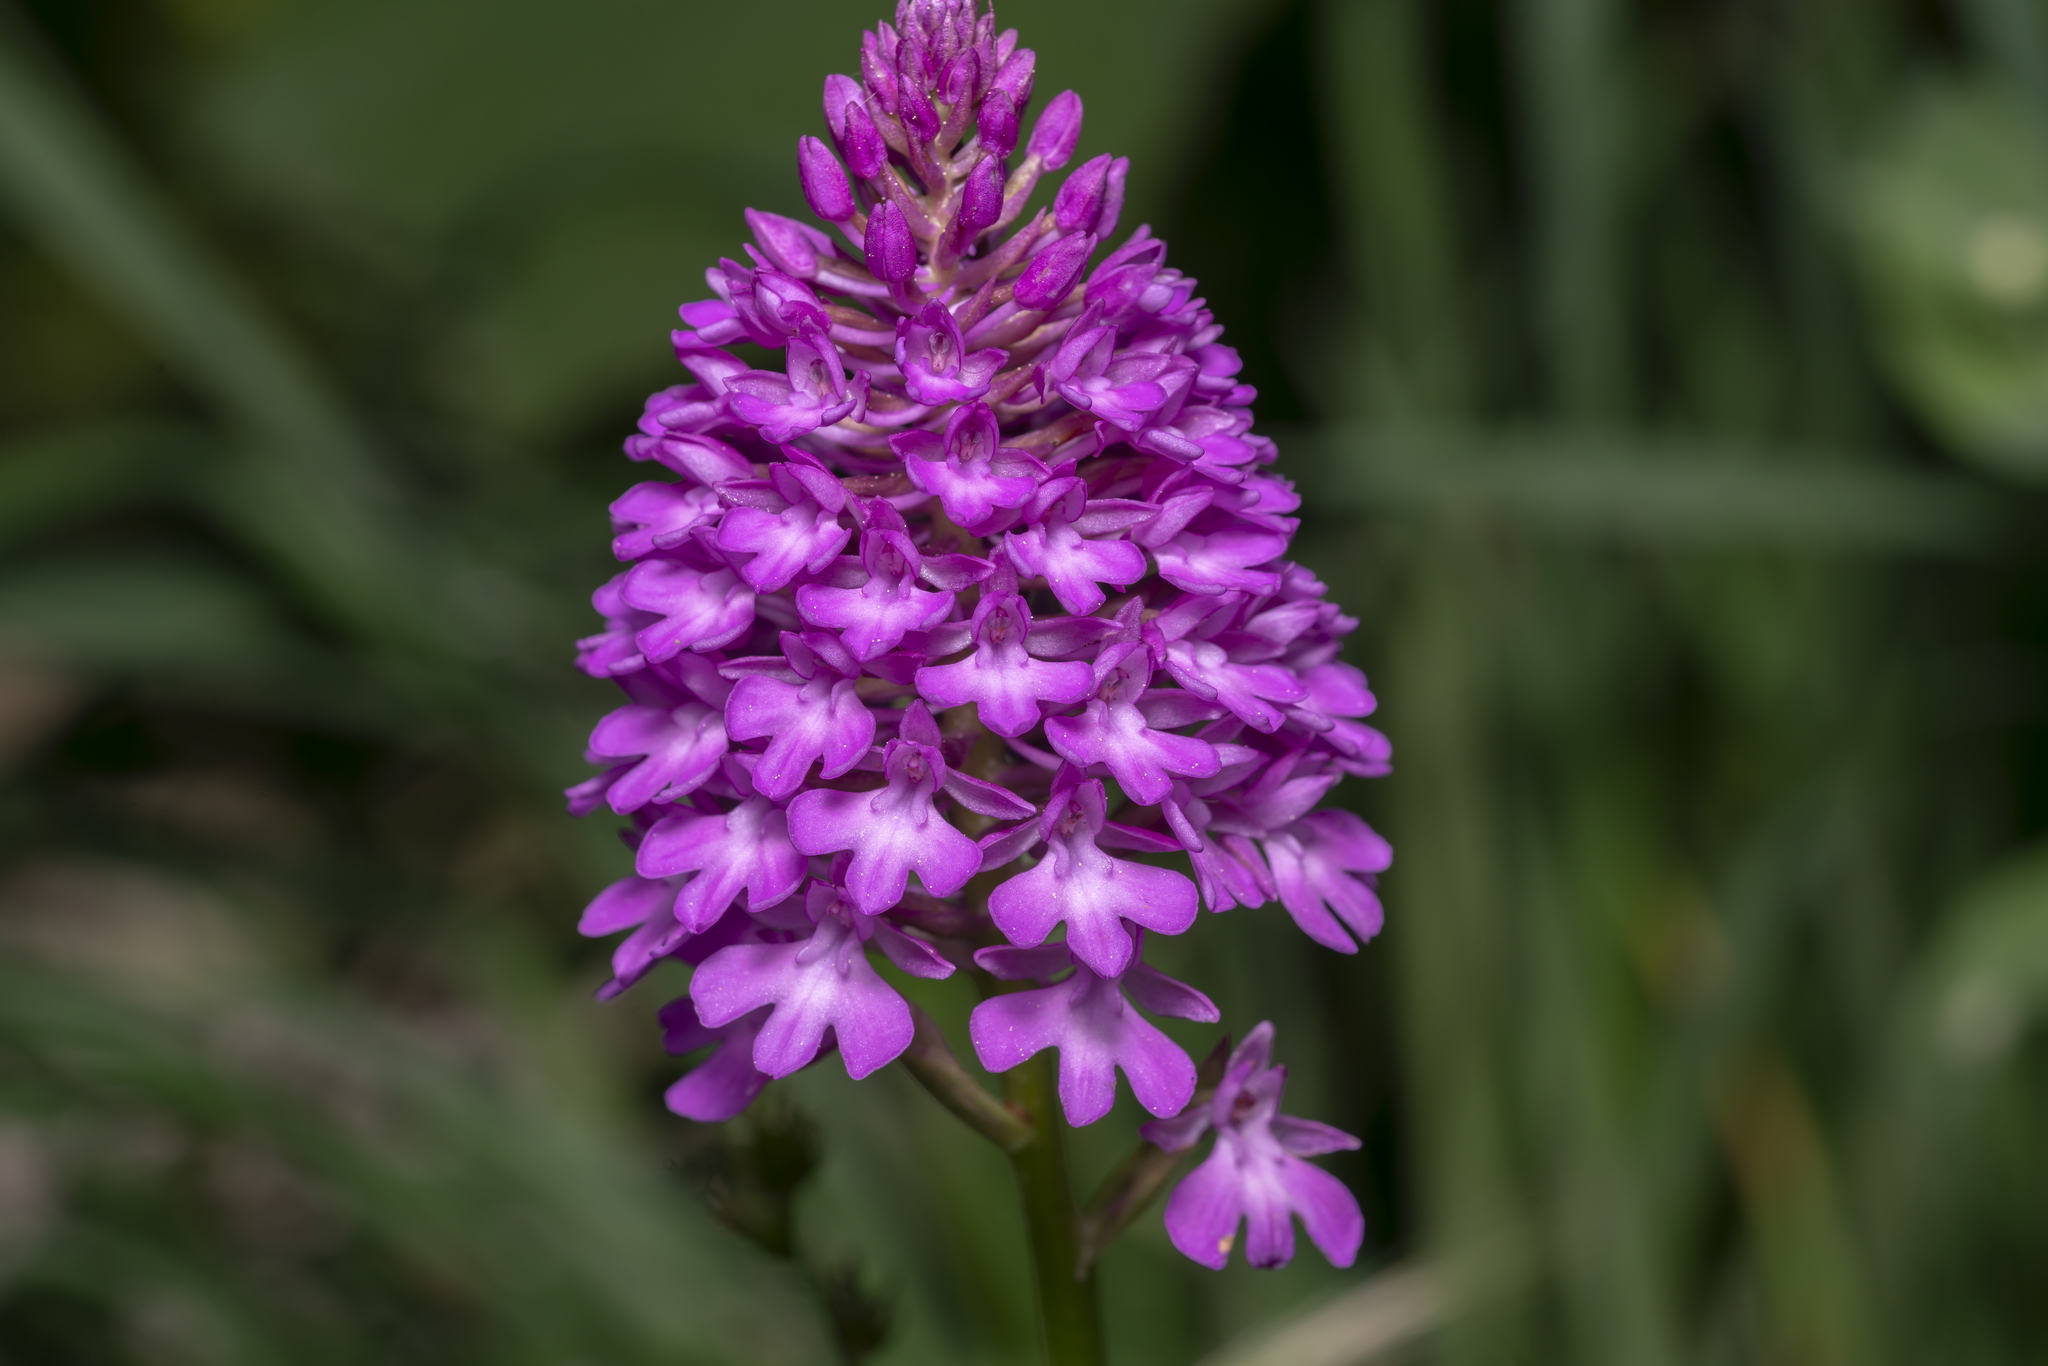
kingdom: Plantae
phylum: Tracheophyta
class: Liliopsida
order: Asparagales
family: Orchidaceae
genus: Anacamptis
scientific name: Anacamptis pyramidalis
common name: Pyramidal orchid
